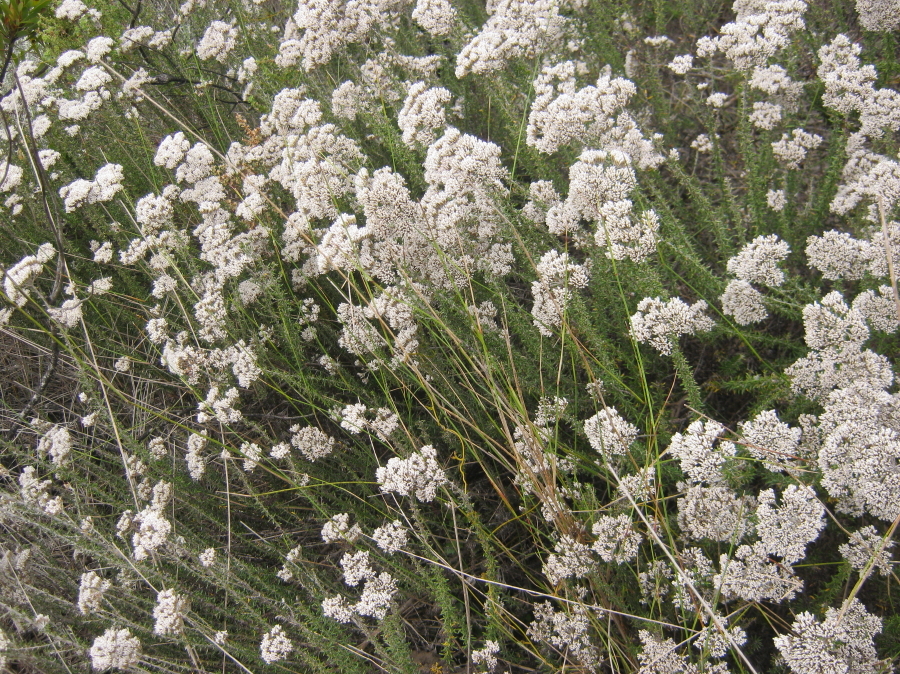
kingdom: Plantae
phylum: Tracheophyta
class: Magnoliopsida
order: Asterales
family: Asteraceae
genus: Metalasia
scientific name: Metalasia muricata
